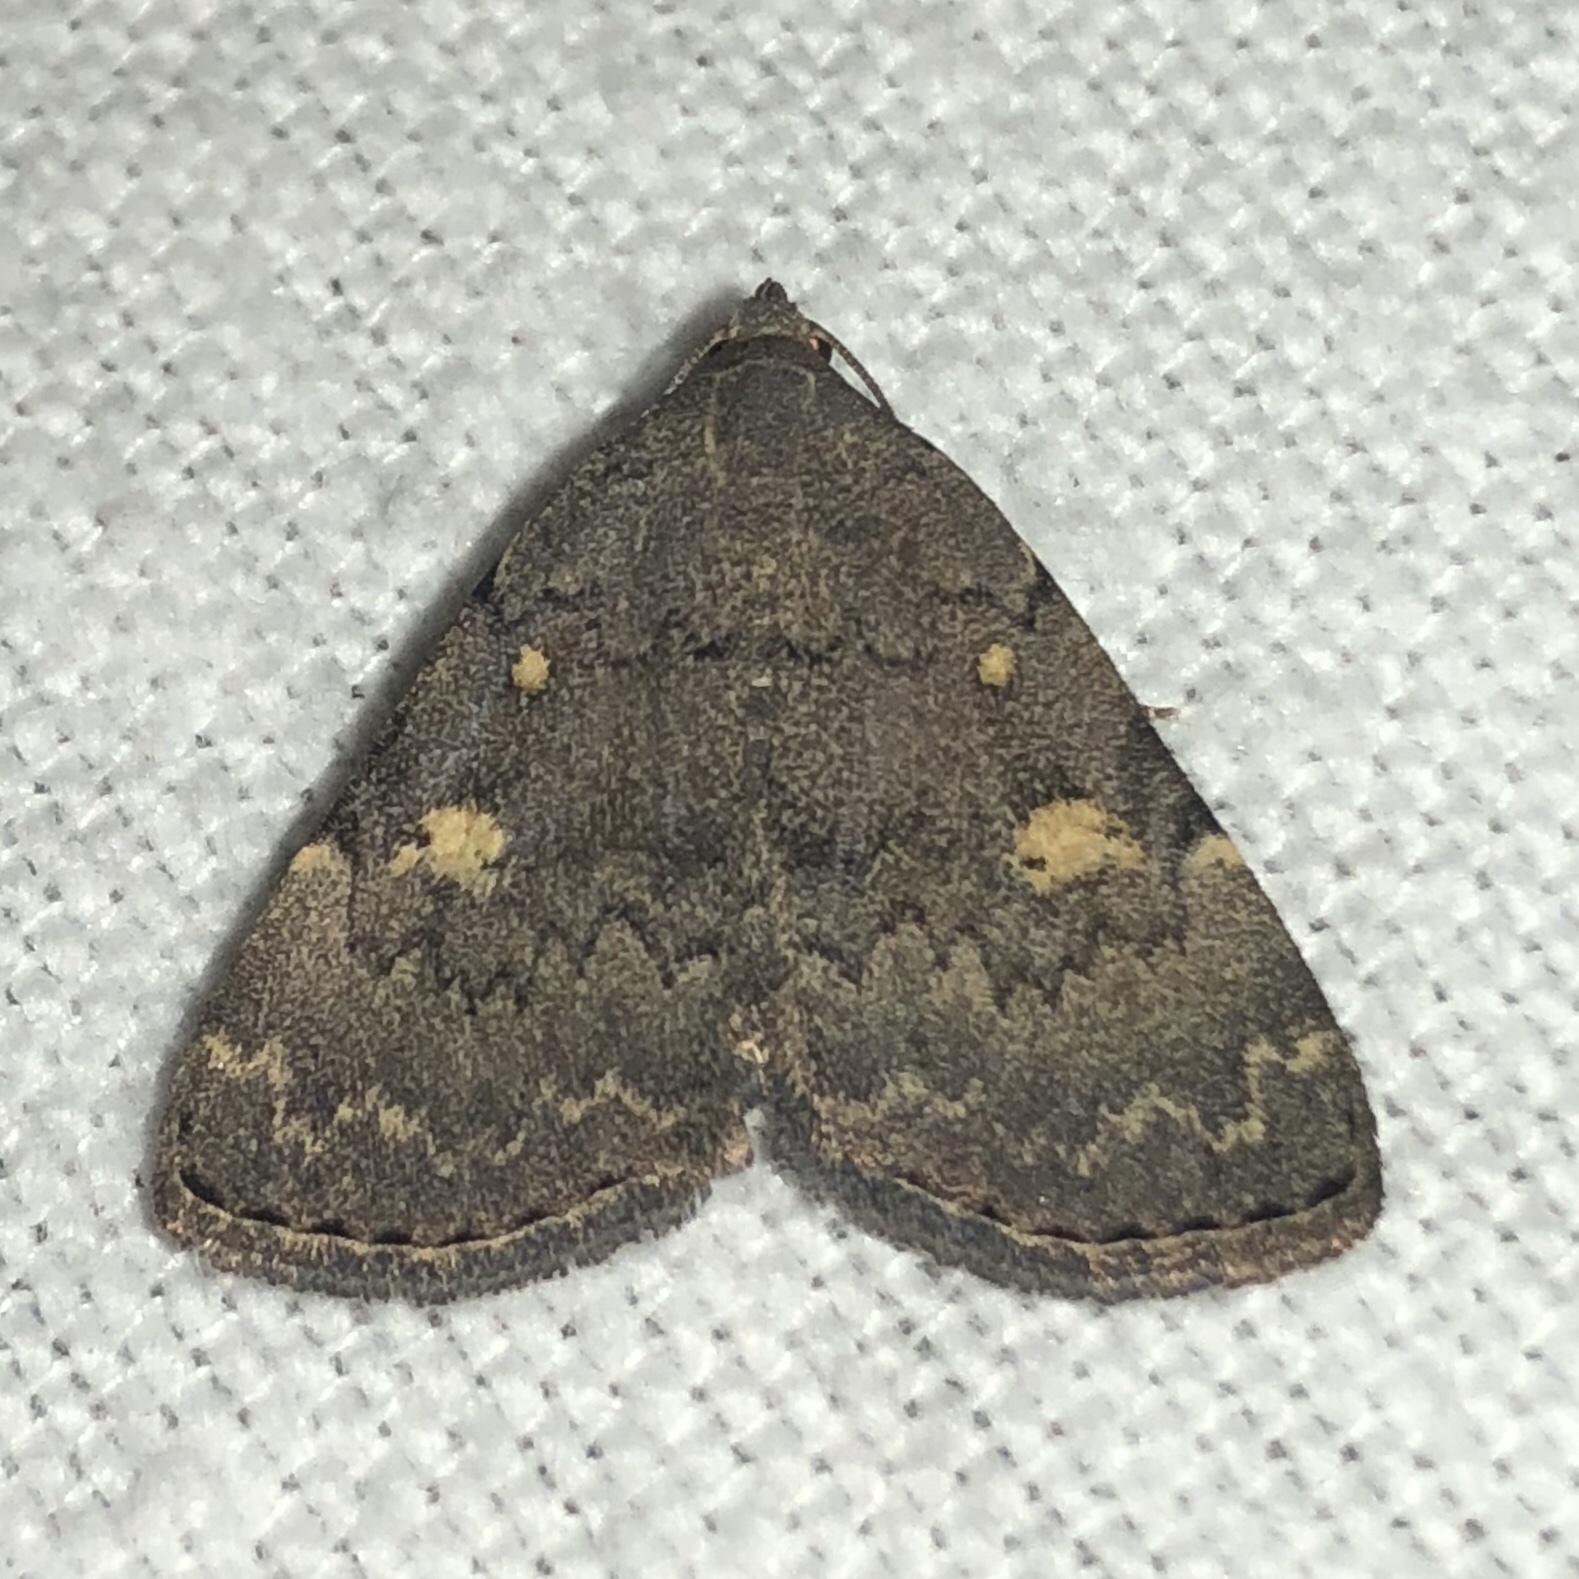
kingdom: Animalia
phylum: Arthropoda
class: Insecta
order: Lepidoptera
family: Erebidae
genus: Idia
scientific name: Idia aemula
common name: Common idia moth
